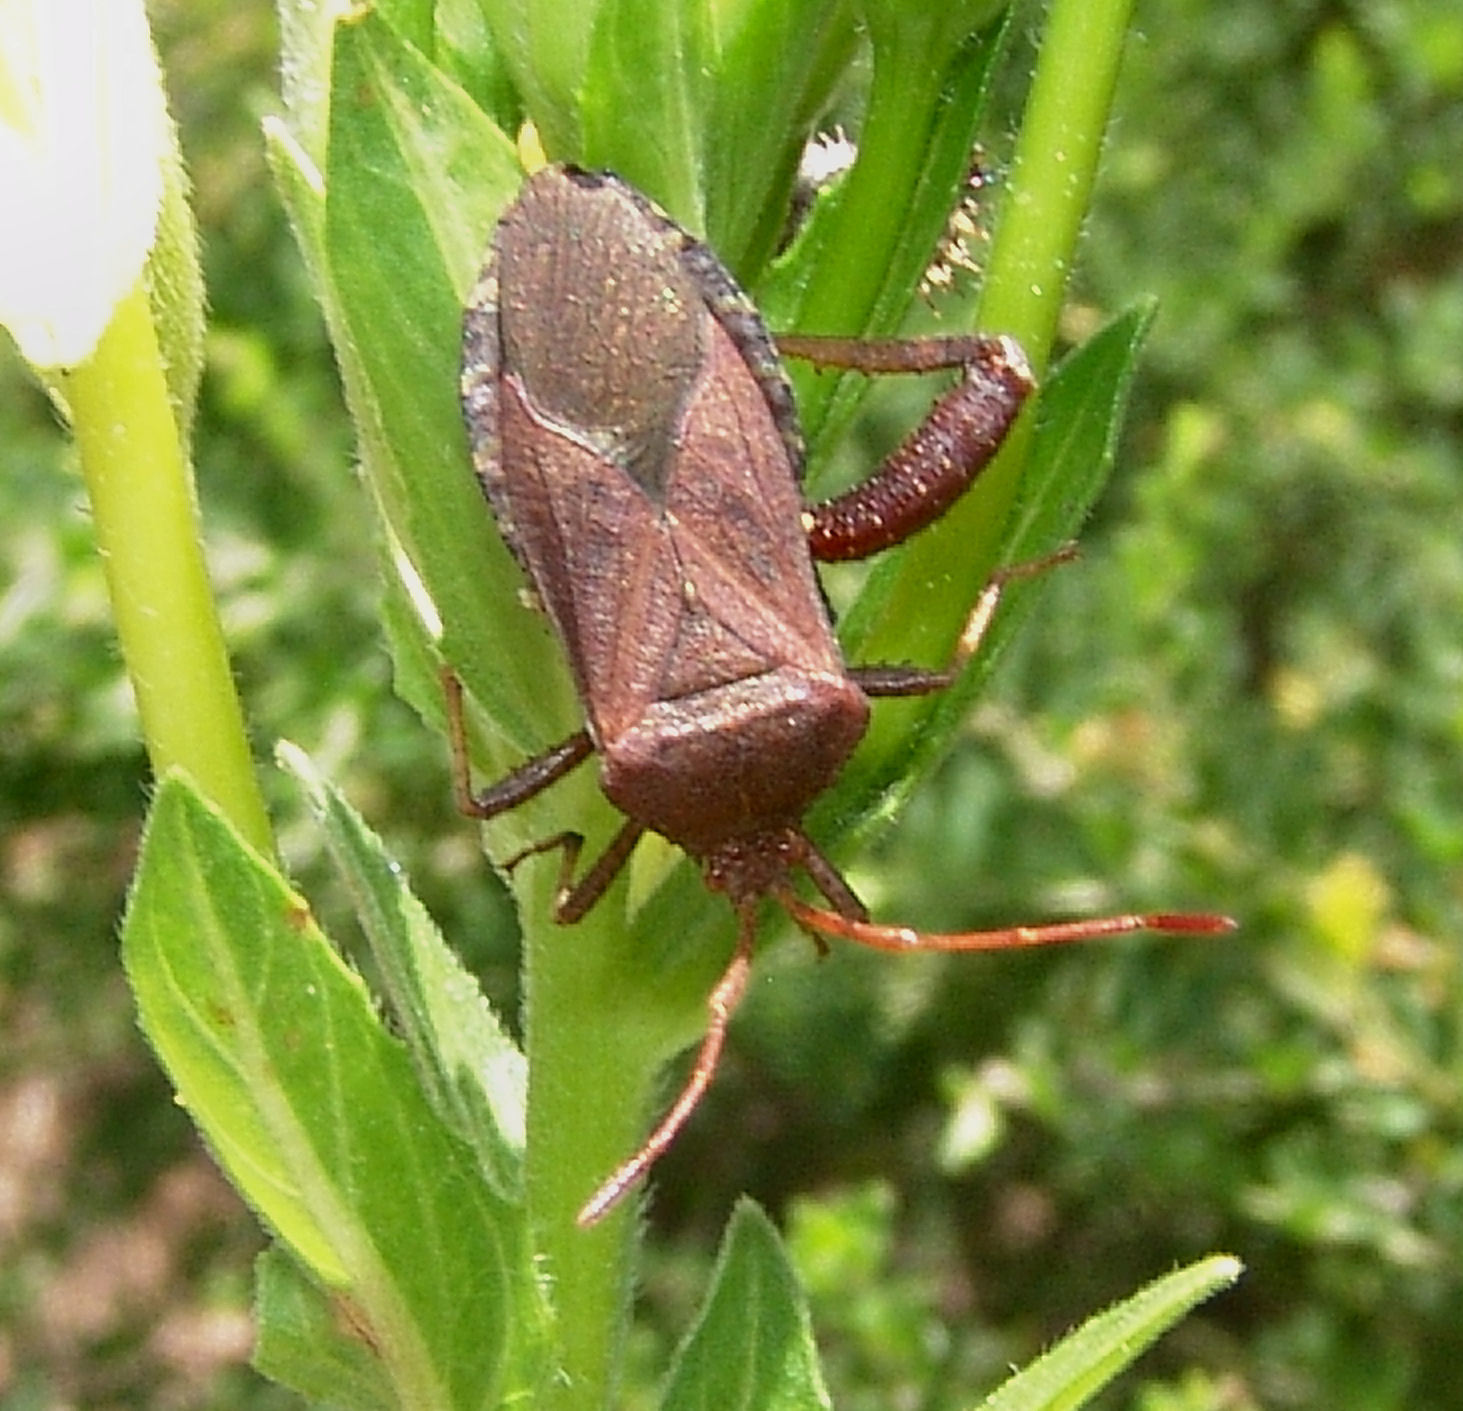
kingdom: Animalia
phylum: Arthropoda
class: Insecta
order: Hemiptera
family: Coreidae
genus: Euthochtha
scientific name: Euthochtha galeator
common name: Helmeted squash bug
